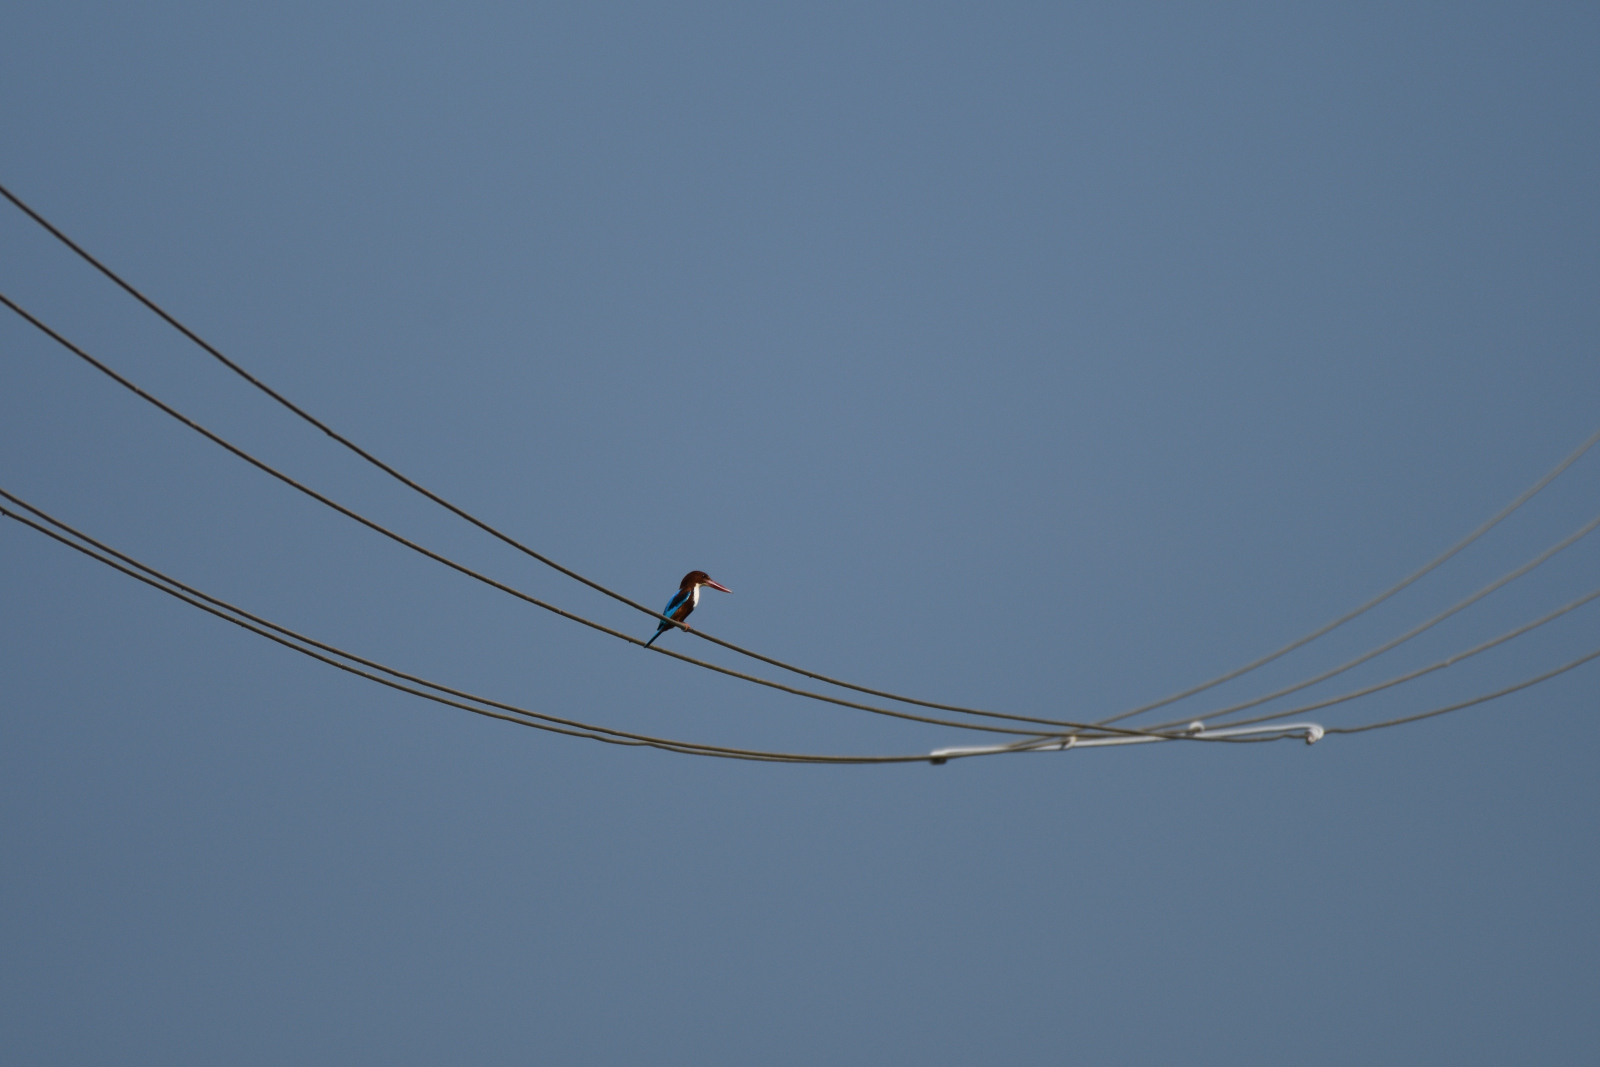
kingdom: Animalia
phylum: Chordata
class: Aves
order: Coraciiformes
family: Alcedinidae
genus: Halcyon
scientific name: Halcyon smyrnensis
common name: White-throated kingfisher
